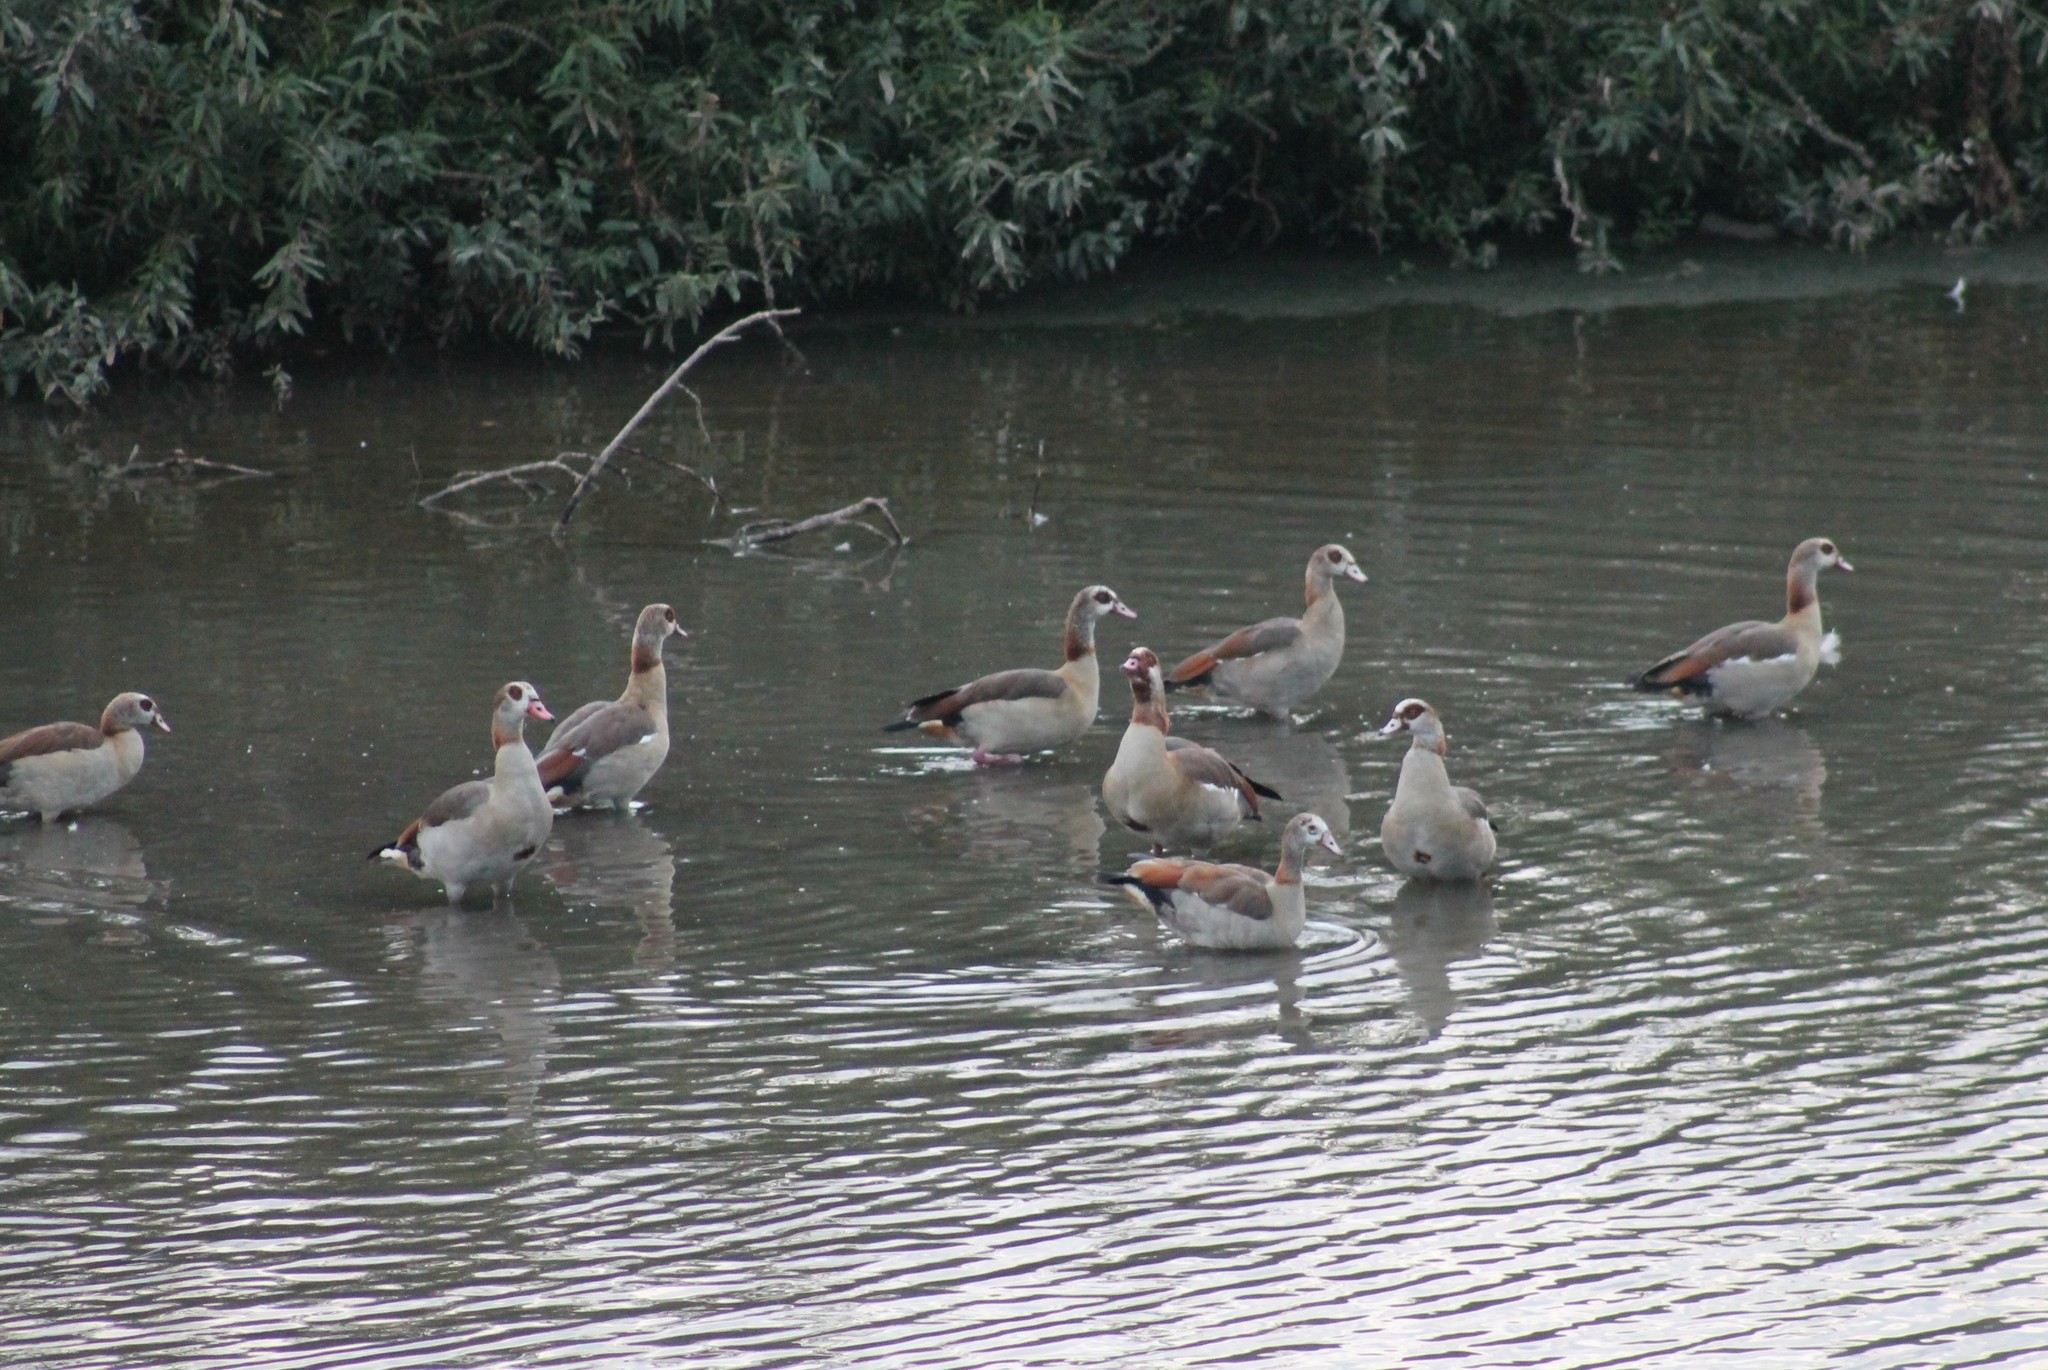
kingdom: Animalia
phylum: Chordata
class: Aves
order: Anseriformes
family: Anatidae
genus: Alopochen
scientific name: Alopochen aegyptiaca
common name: Egyptian goose
